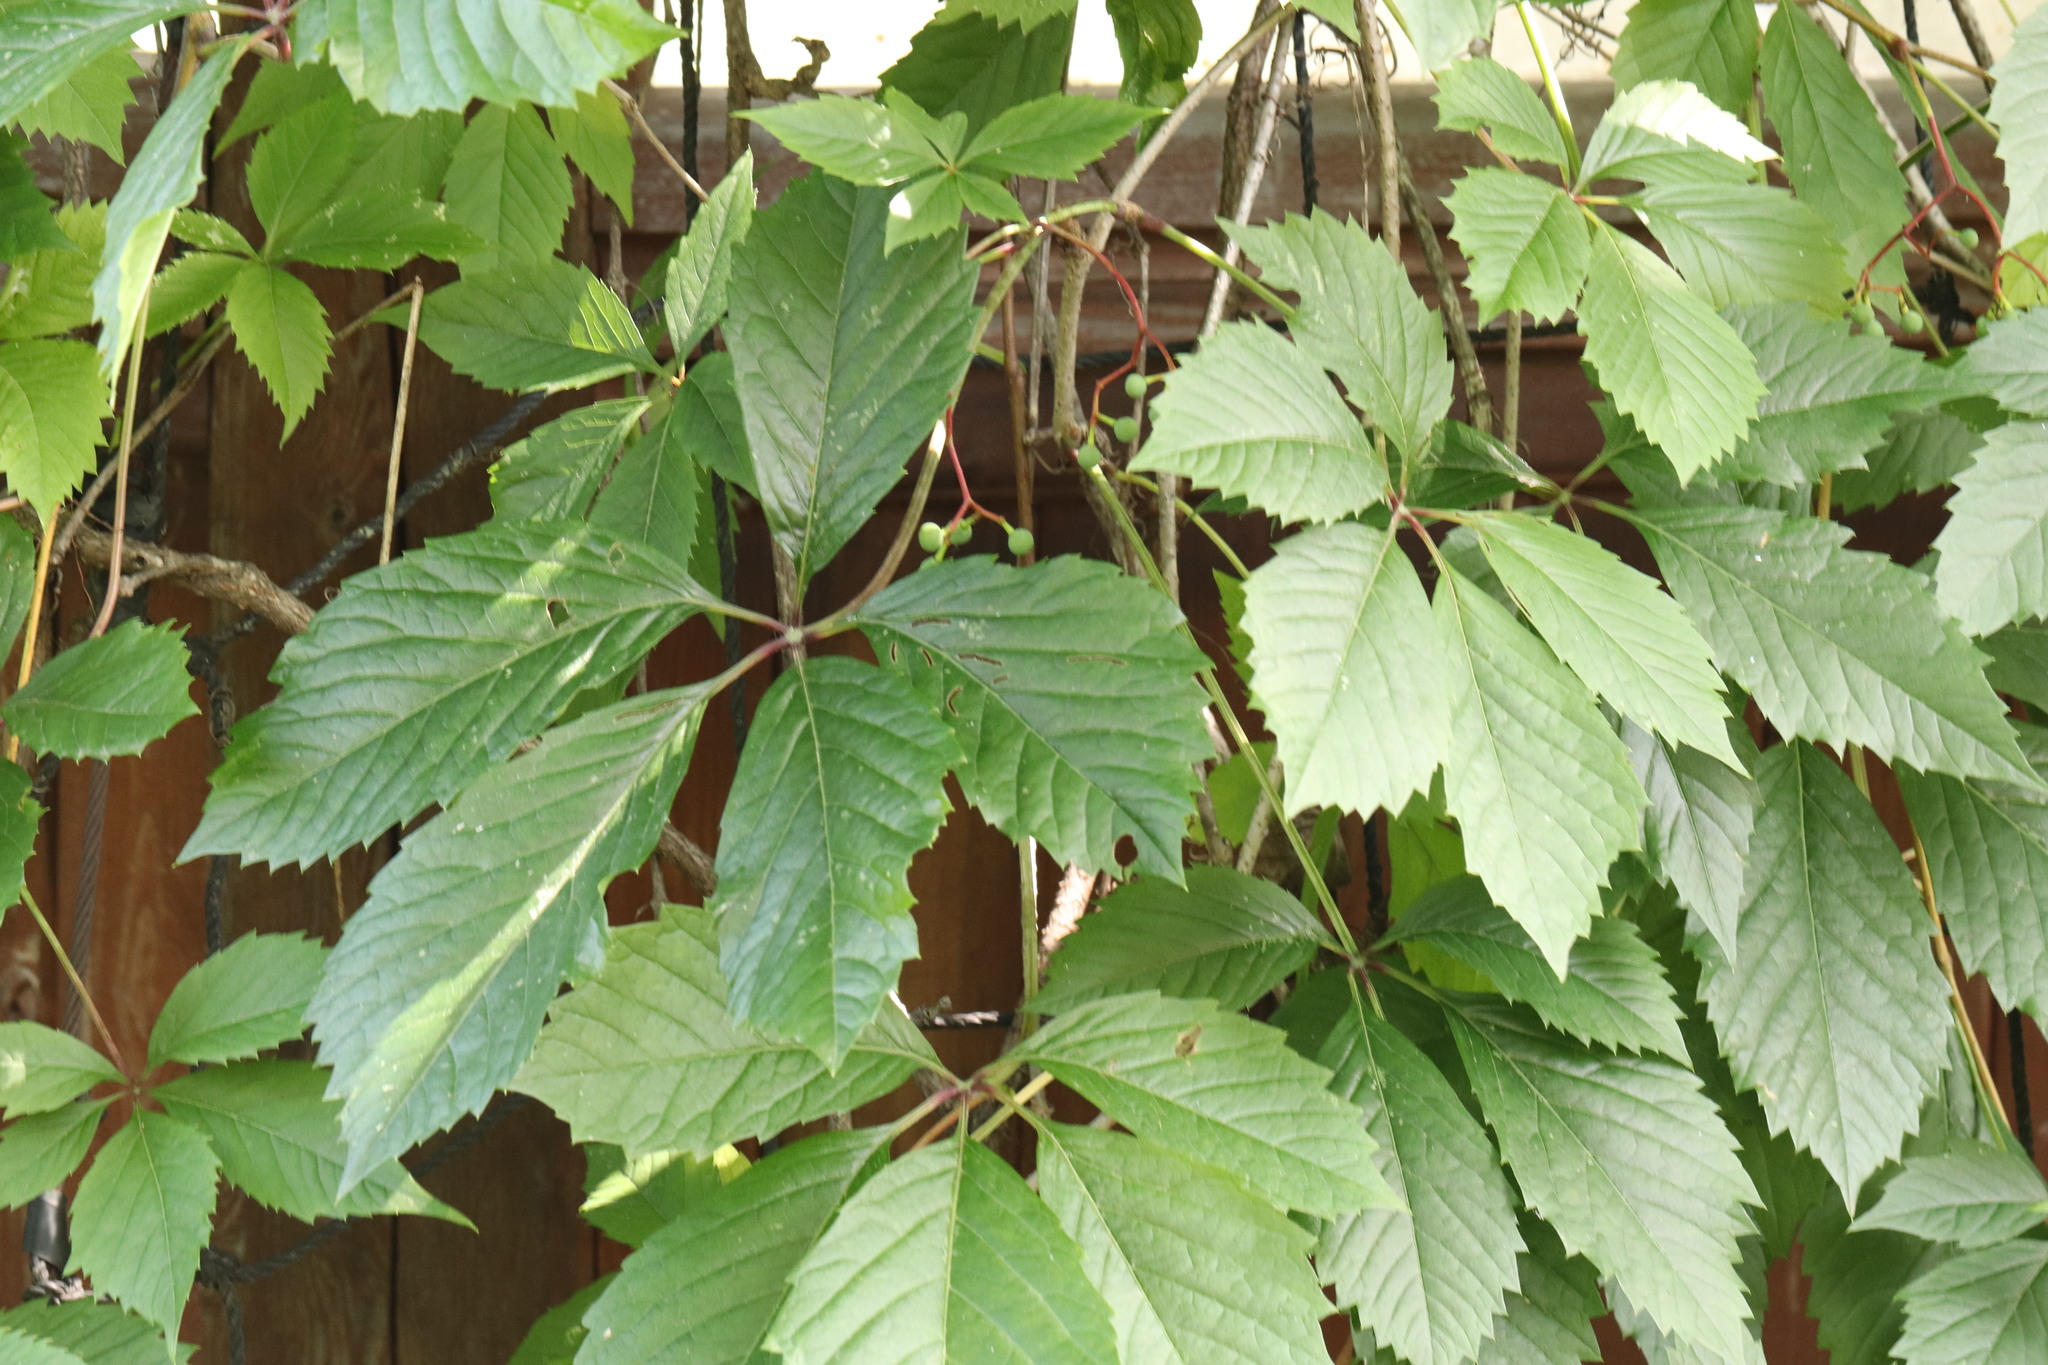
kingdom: Plantae
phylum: Tracheophyta
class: Magnoliopsida
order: Vitales
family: Vitaceae
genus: Parthenocissus
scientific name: Parthenocissus inserta
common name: False virginia-creeper
